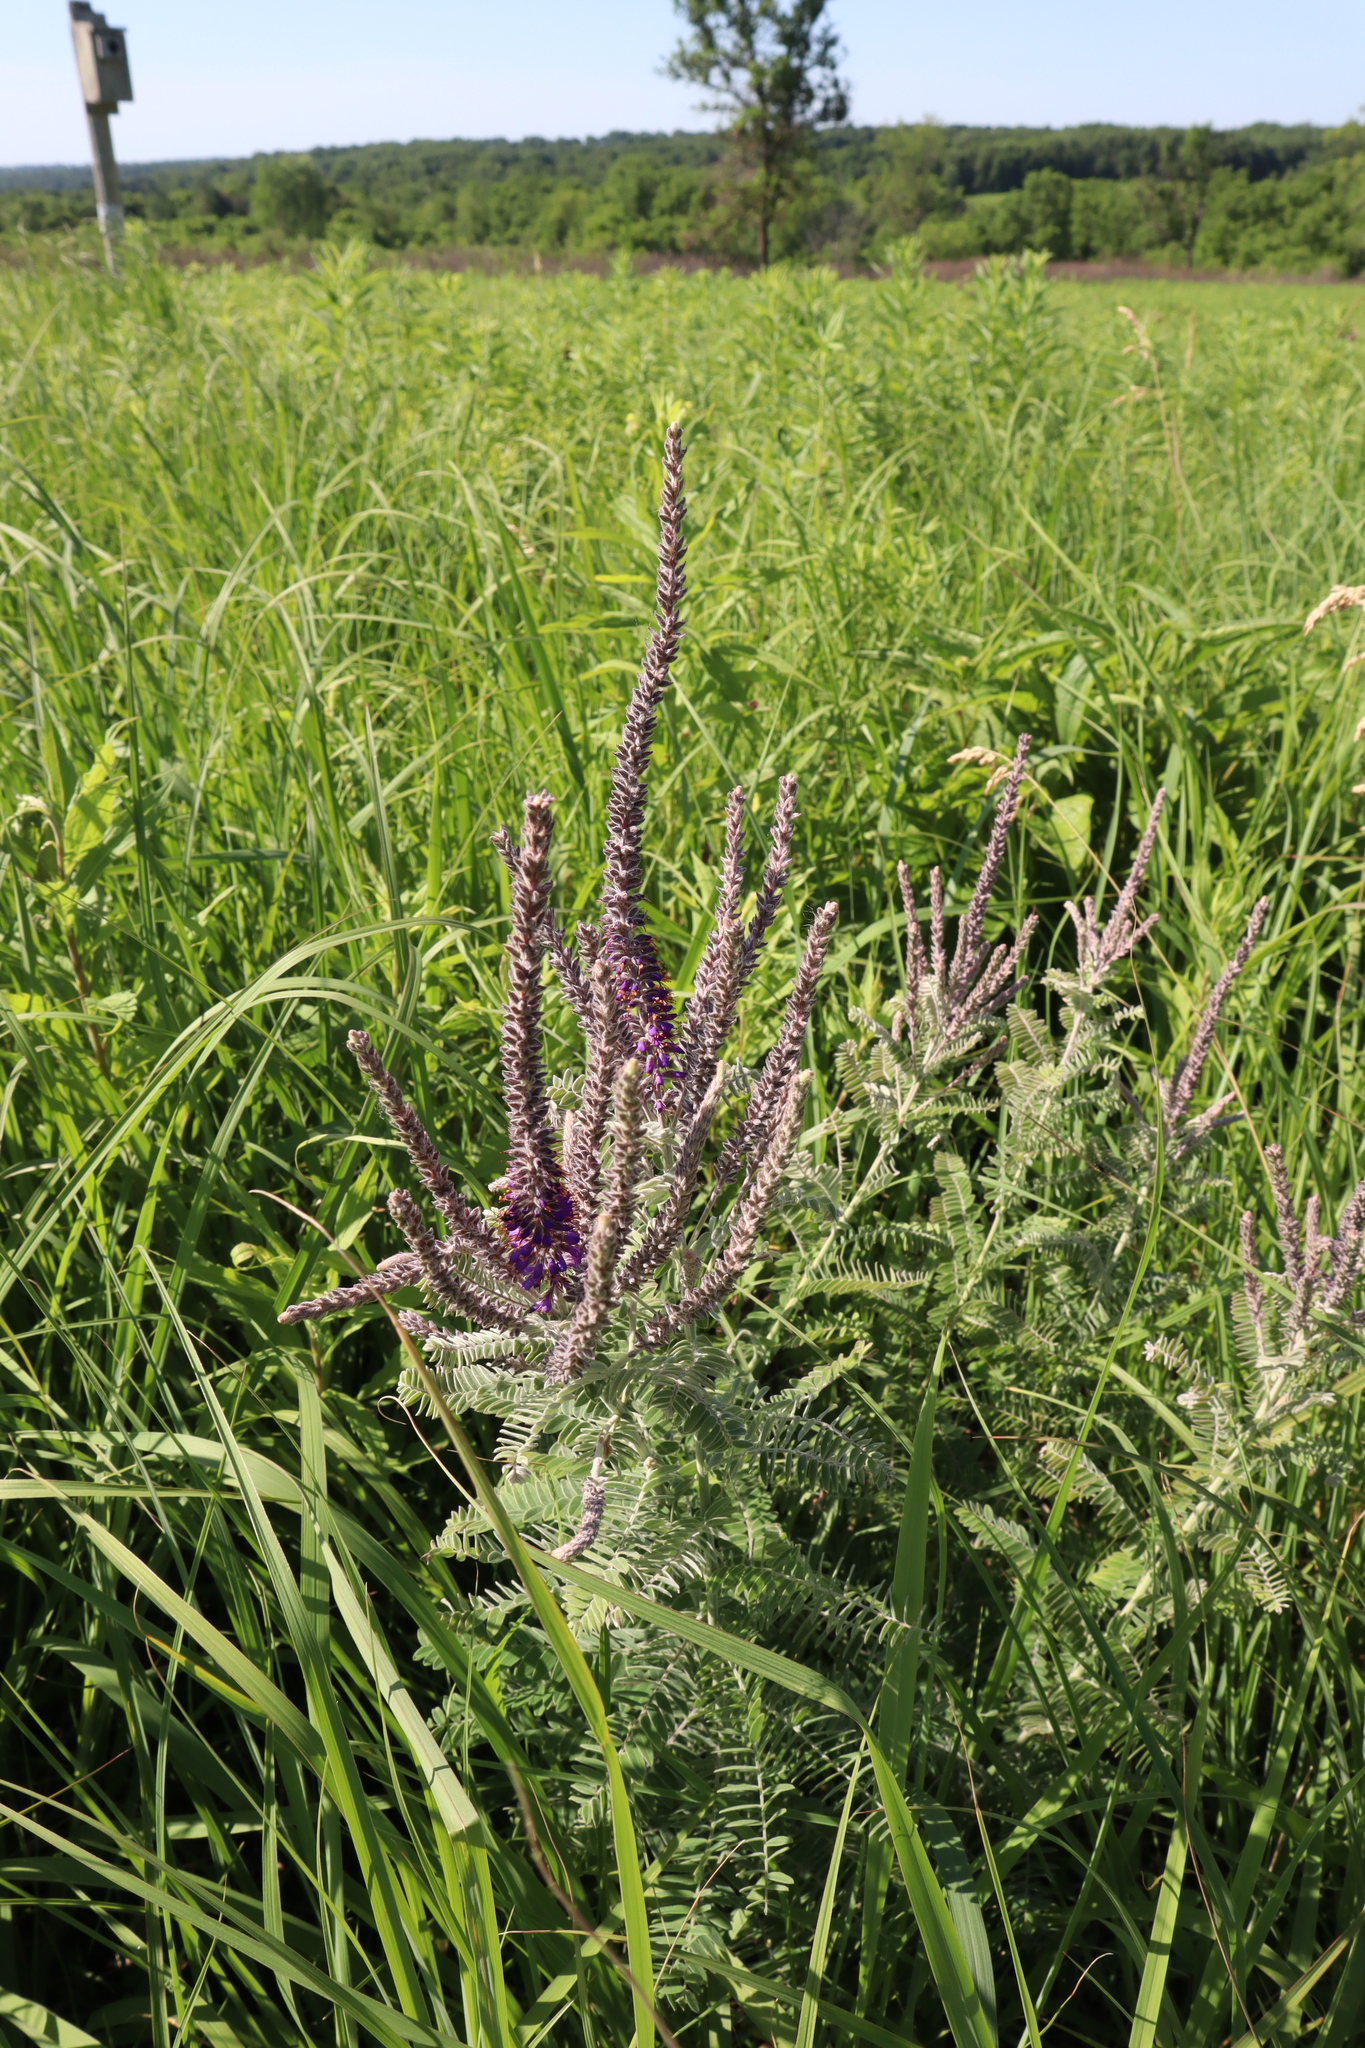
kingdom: Plantae
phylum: Tracheophyta
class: Magnoliopsida
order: Fabales
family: Fabaceae
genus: Amorpha
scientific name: Amorpha canescens
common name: Leadplant
